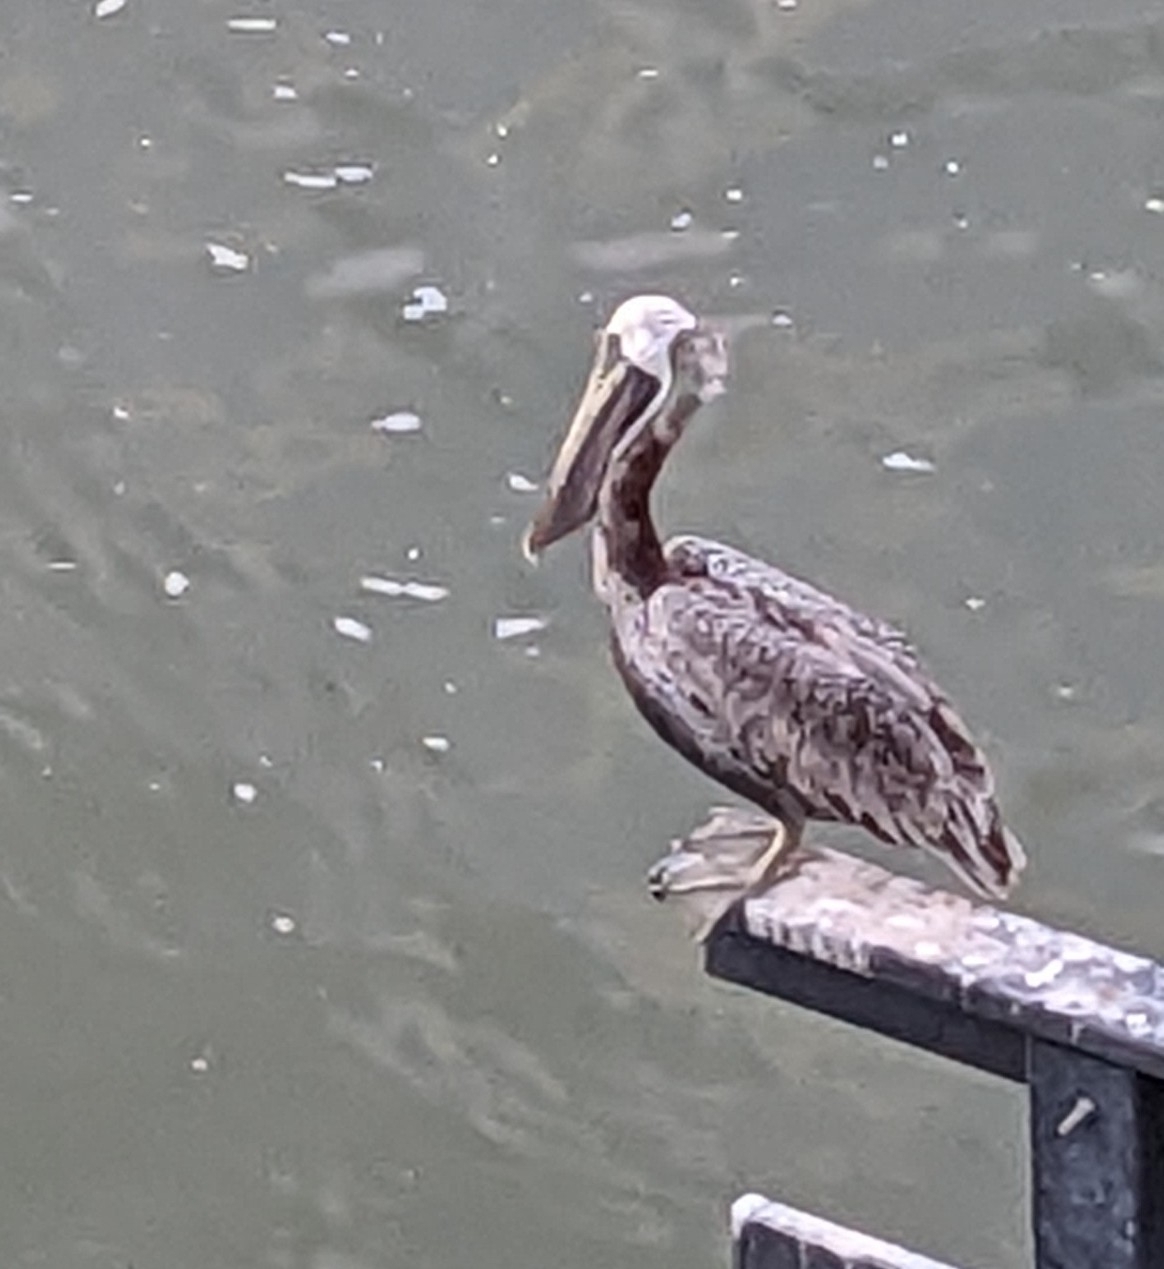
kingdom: Animalia
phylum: Chordata
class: Aves
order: Pelecaniformes
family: Pelecanidae
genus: Pelecanus
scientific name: Pelecanus occidentalis
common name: Brown pelican
